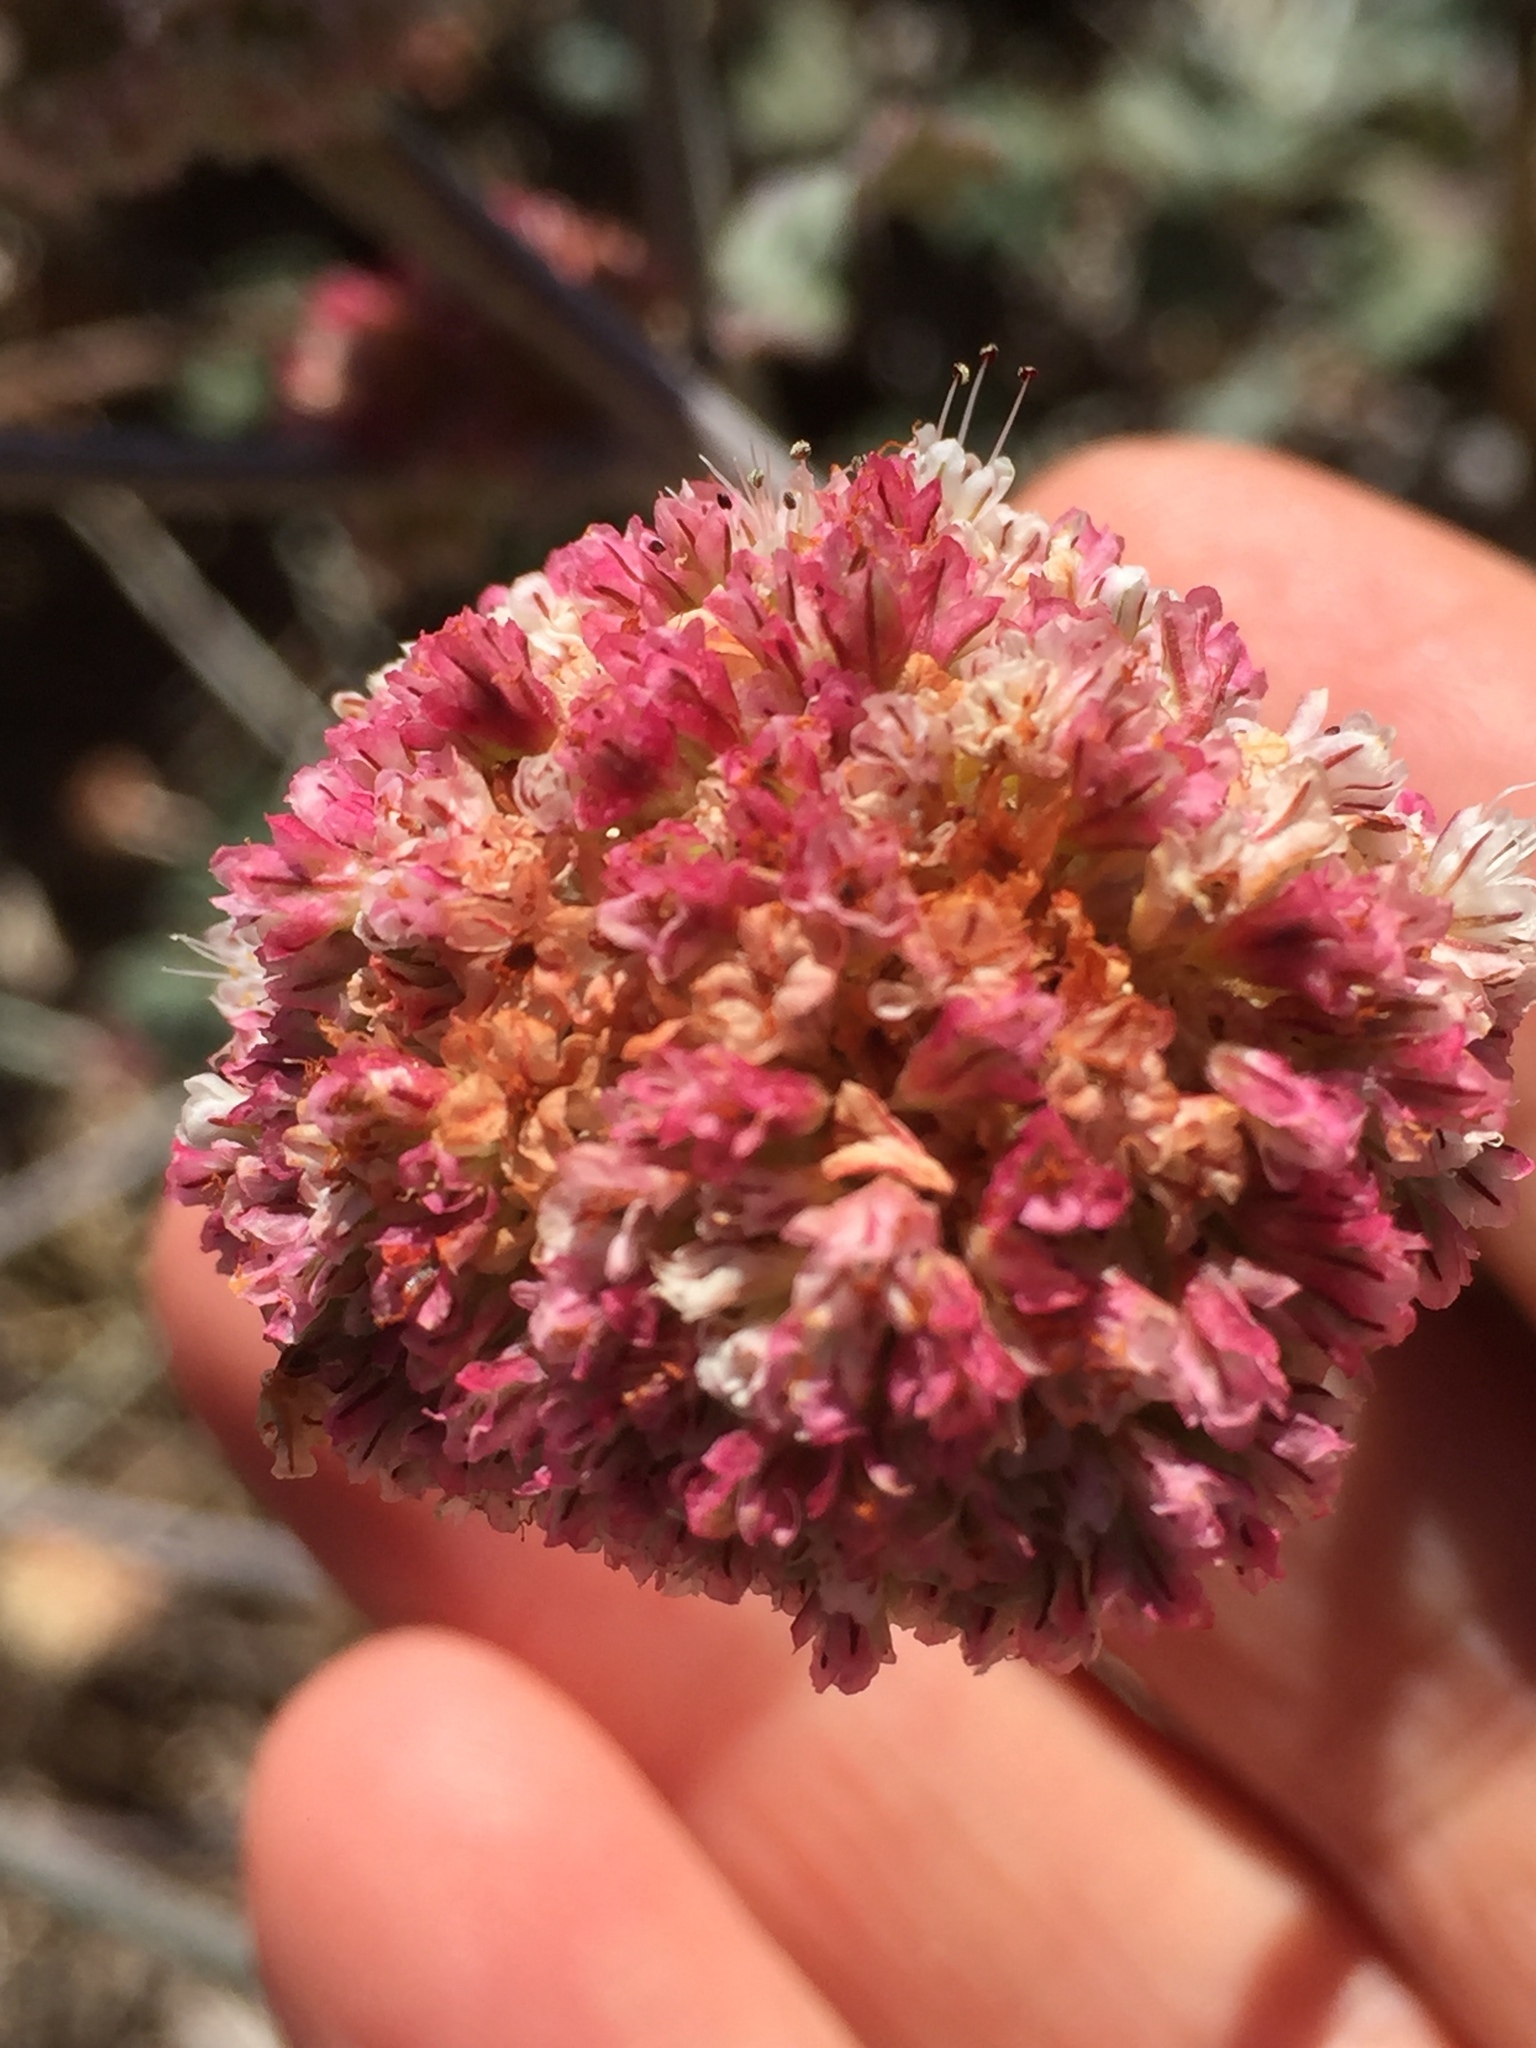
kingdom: Plantae
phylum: Tracheophyta
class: Magnoliopsida
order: Caryophyllales
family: Polygonaceae
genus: Eriogonum
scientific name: Eriogonum latifolium
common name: Seaside wild buckwheat
